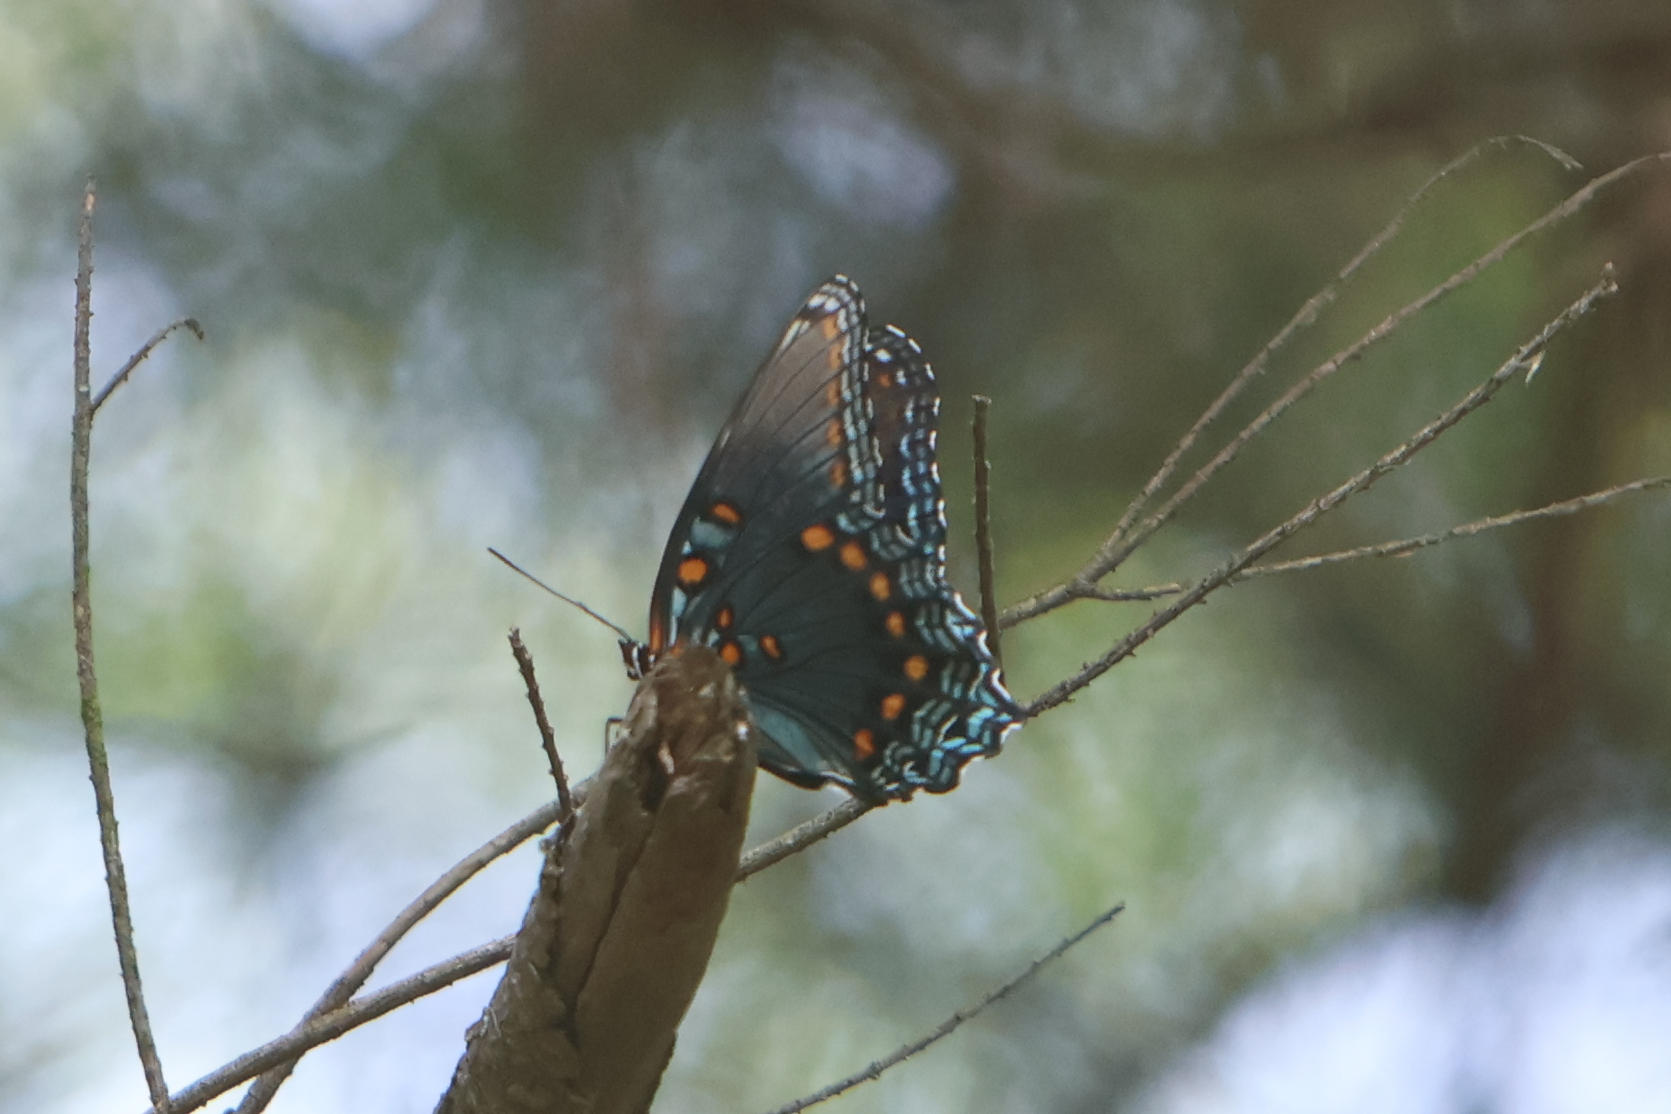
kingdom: Animalia
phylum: Arthropoda
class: Insecta
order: Lepidoptera
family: Nymphalidae
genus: Limenitis
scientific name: Limenitis astyanax
